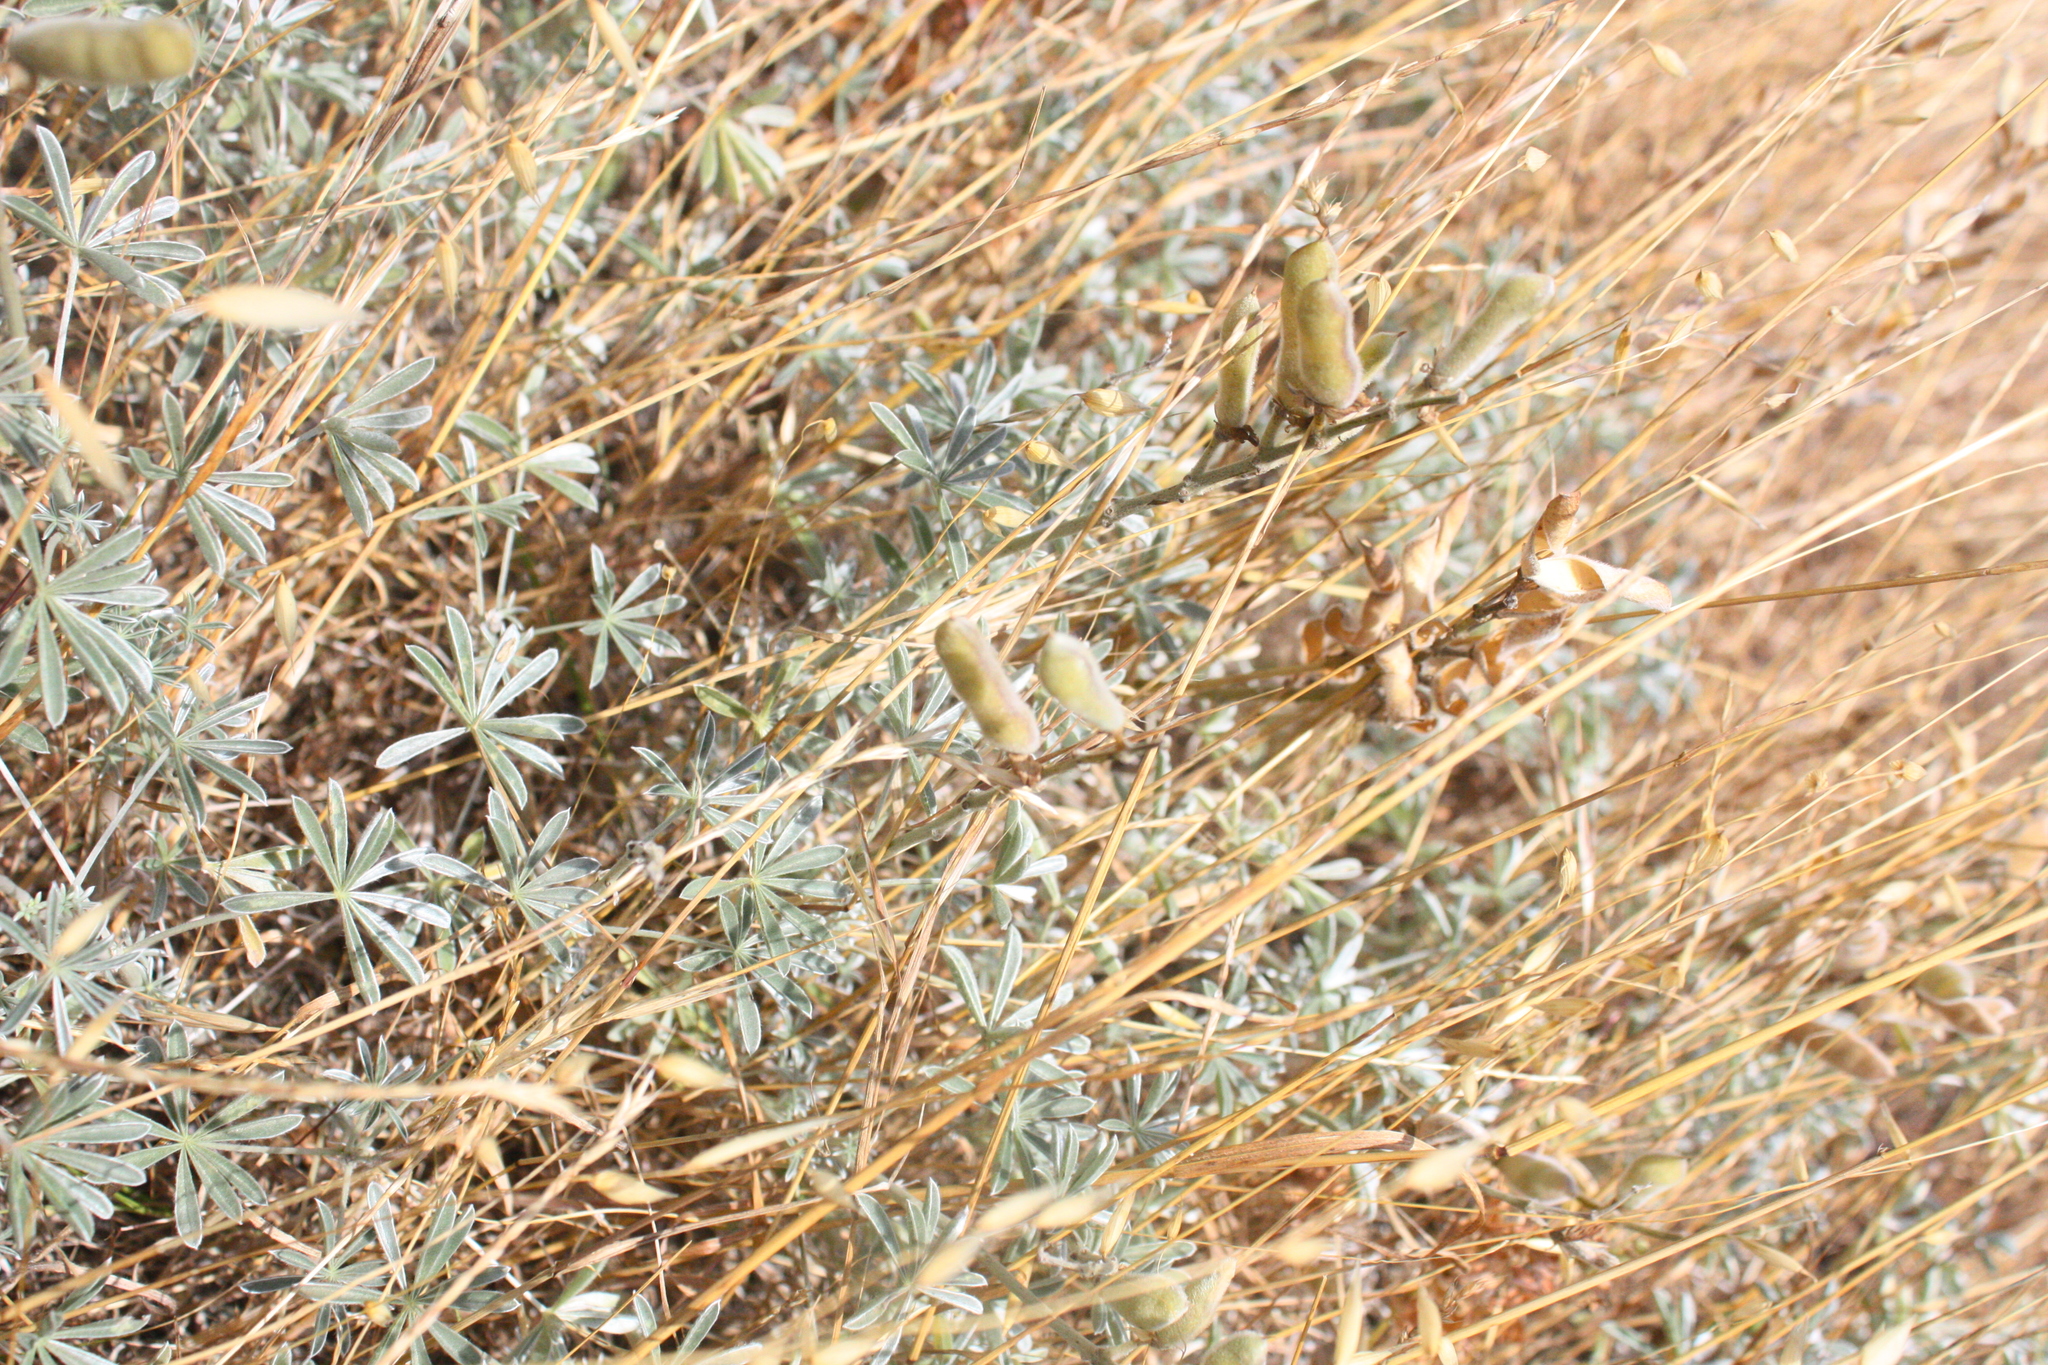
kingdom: Plantae
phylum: Tracheophyta
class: Magnoliopsida
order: Fabales
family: Fabaceae
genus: Lupinus
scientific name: Lupinus albifrons
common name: Foothill lupine
